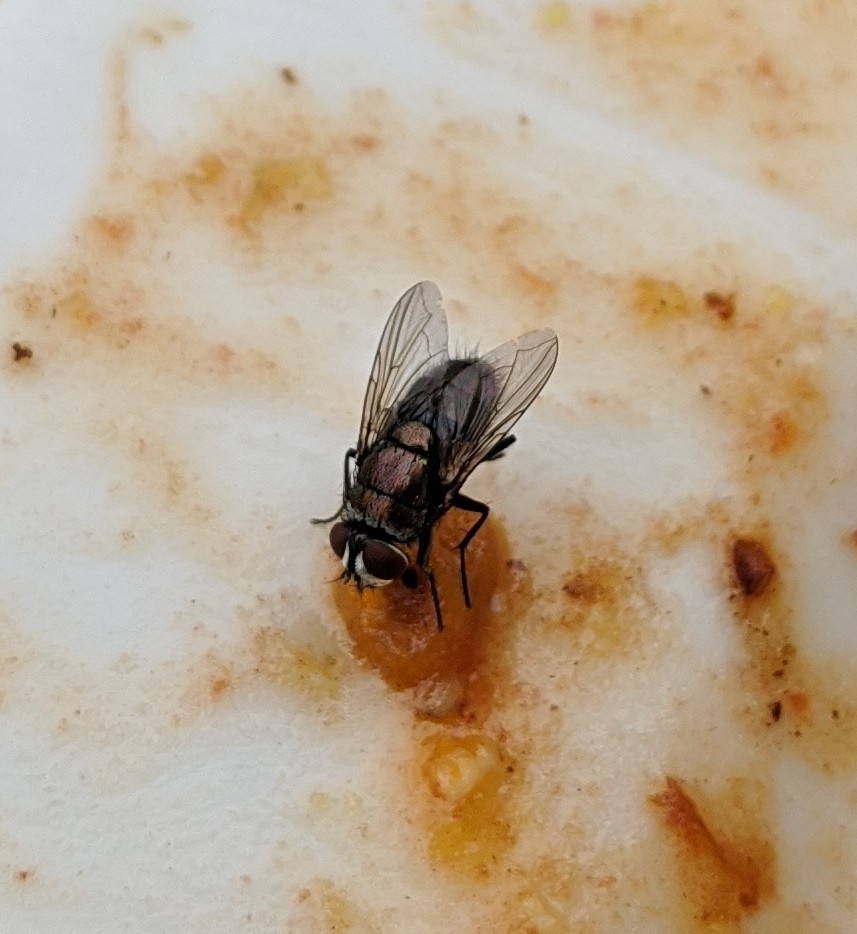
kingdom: Animalia
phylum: Arthropoda
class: Insecta
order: Diptera
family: Calliphoridae
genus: Lucilia
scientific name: Lucilia cuprina
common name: Sheep blow fly
